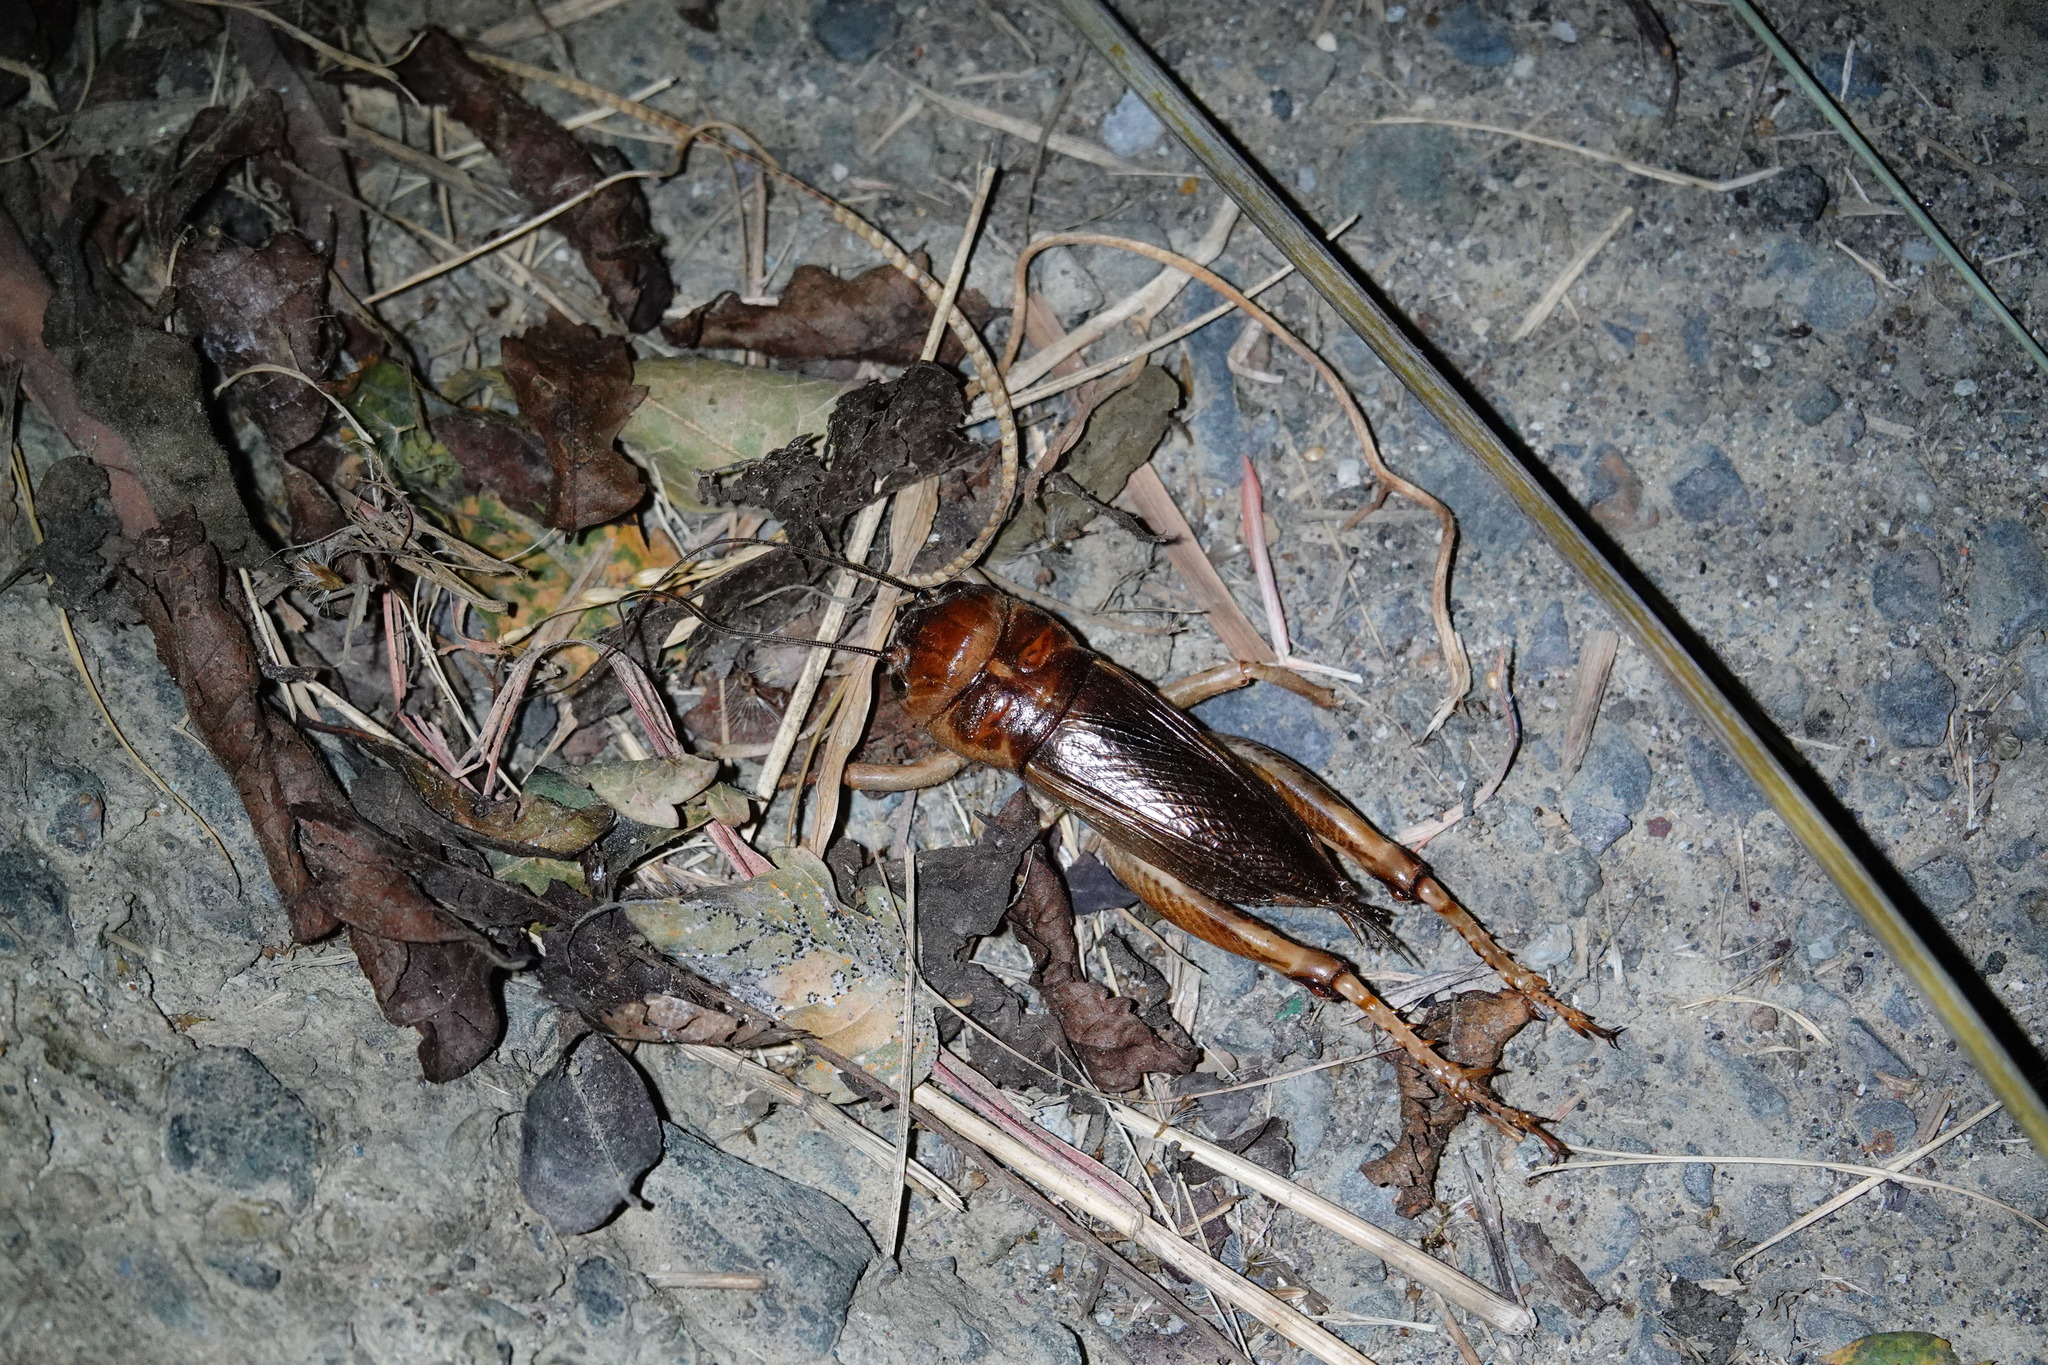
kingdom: Animalia
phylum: Arthropoda
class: Insecta
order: Orthoptera
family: Gryllidae
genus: Tarbinskiellus
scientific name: Tarbinskiellus portentosus
